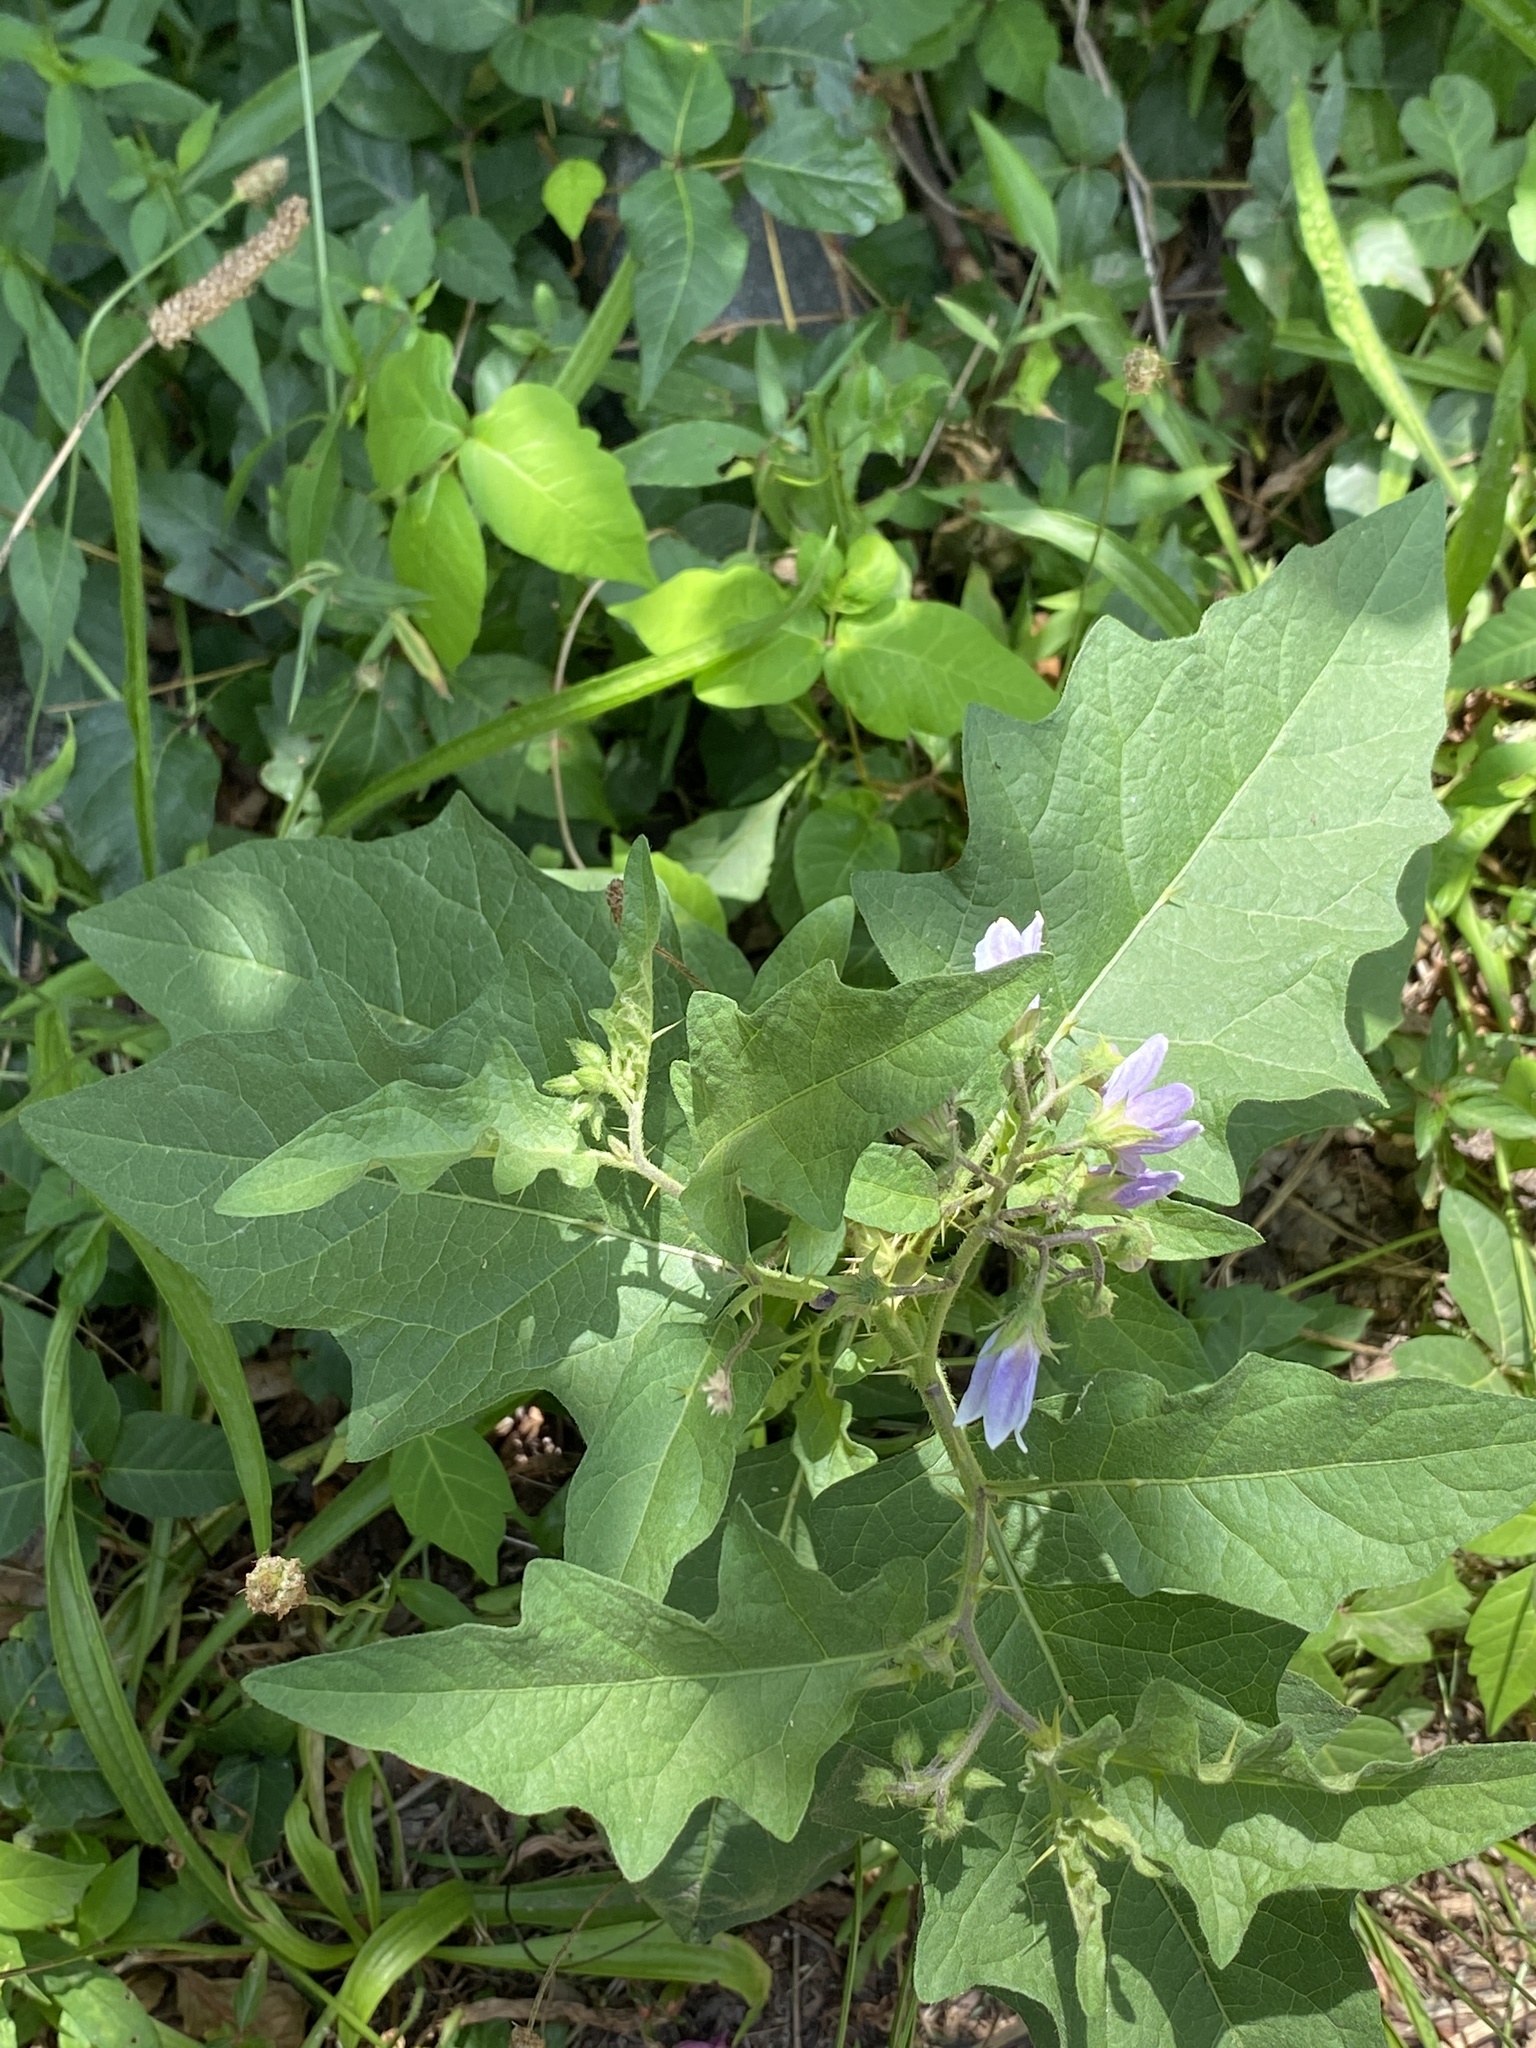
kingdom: Plantae
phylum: Tracheophyta
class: Magnoliopsida
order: Solanales
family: Solanaceae
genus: Solanum
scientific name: Solanum carolinense
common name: Horse-nettle
